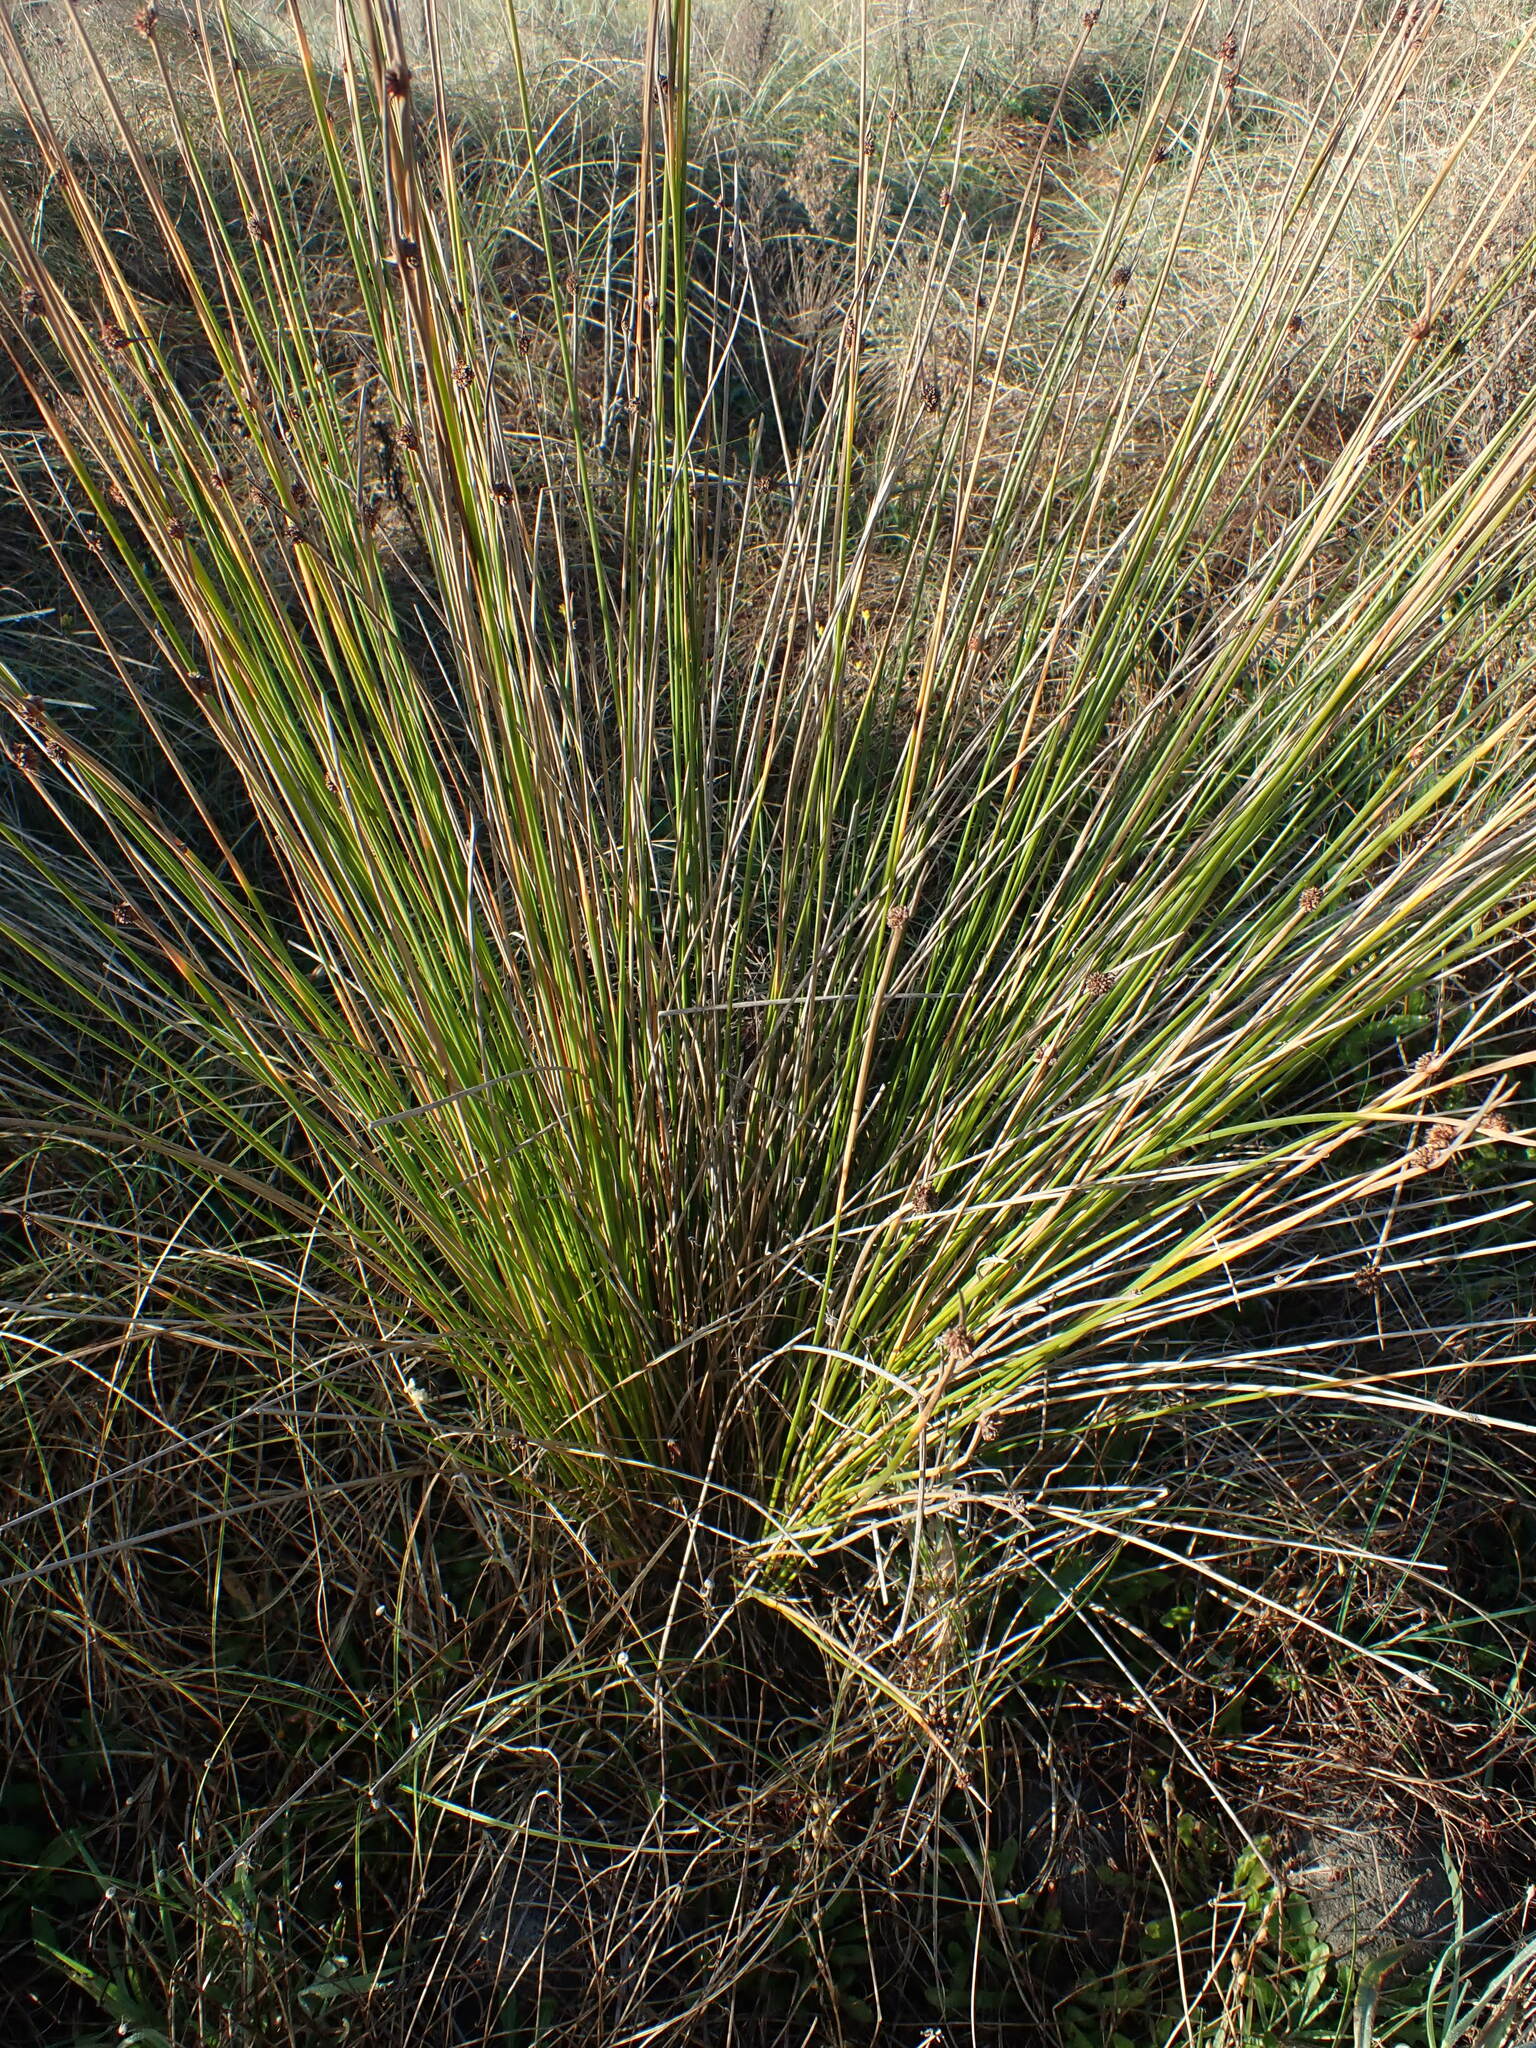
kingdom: Plantae
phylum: Tracheophyta
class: Liliopsida
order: Poales
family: Cyperaceae
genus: Ficinia
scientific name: Ficinia nodosa
